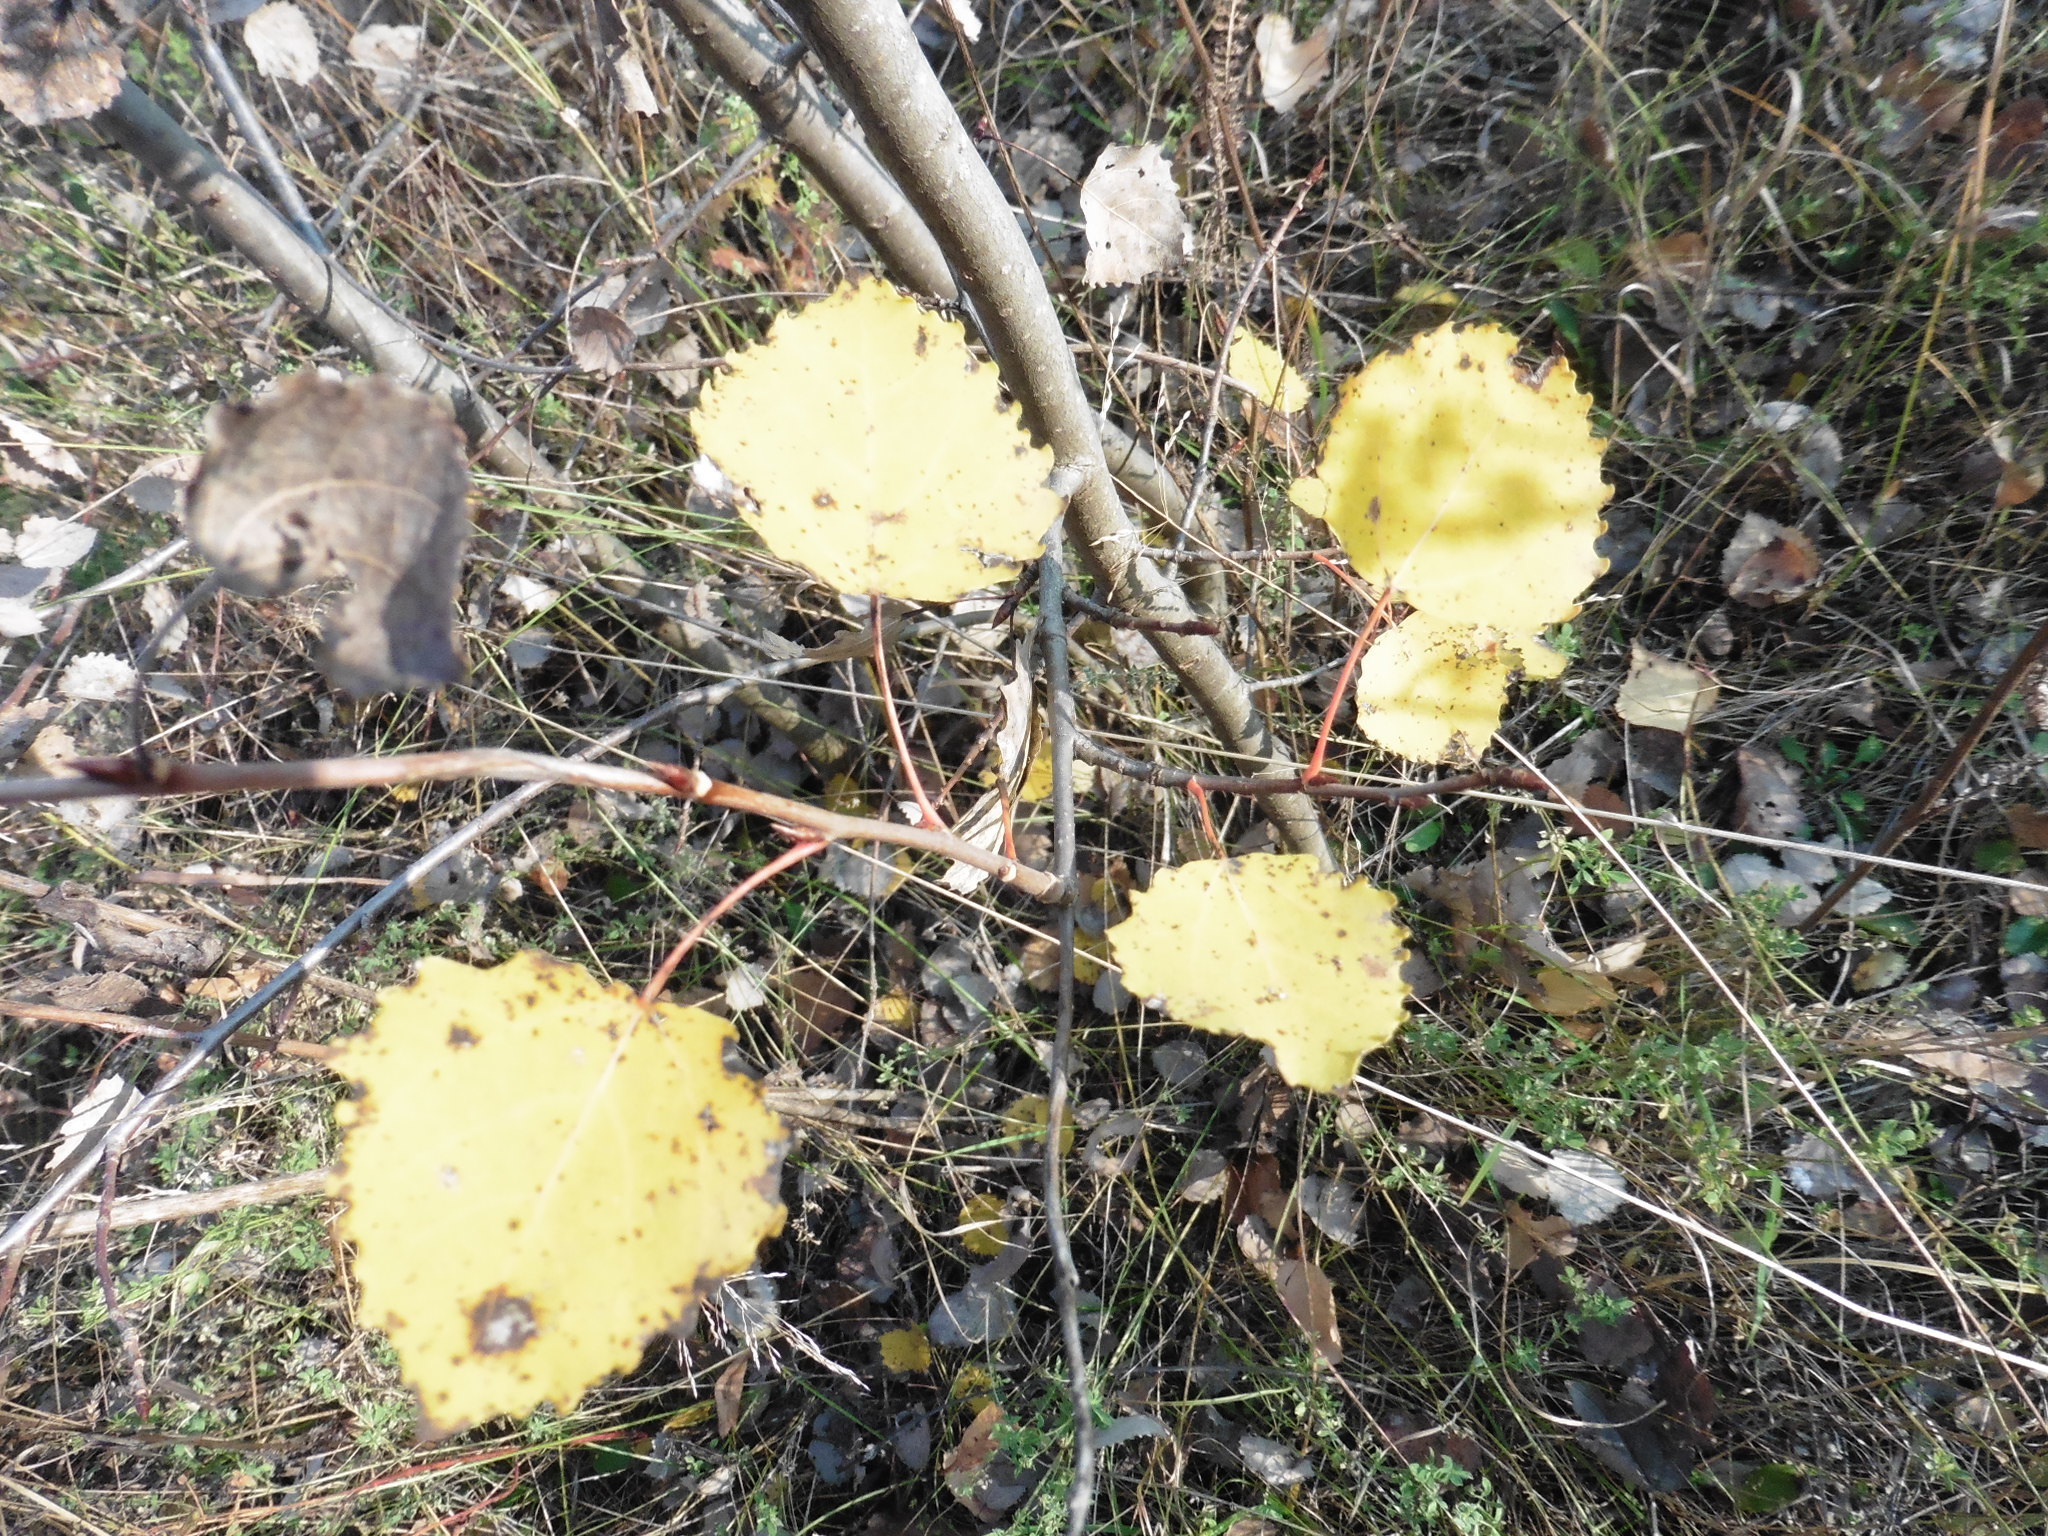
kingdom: Plantae
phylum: Tracheophyta
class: Magnoliopsida
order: Malpighiales
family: Salicaceae
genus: Populus
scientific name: Populus tremula
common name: European aspen
